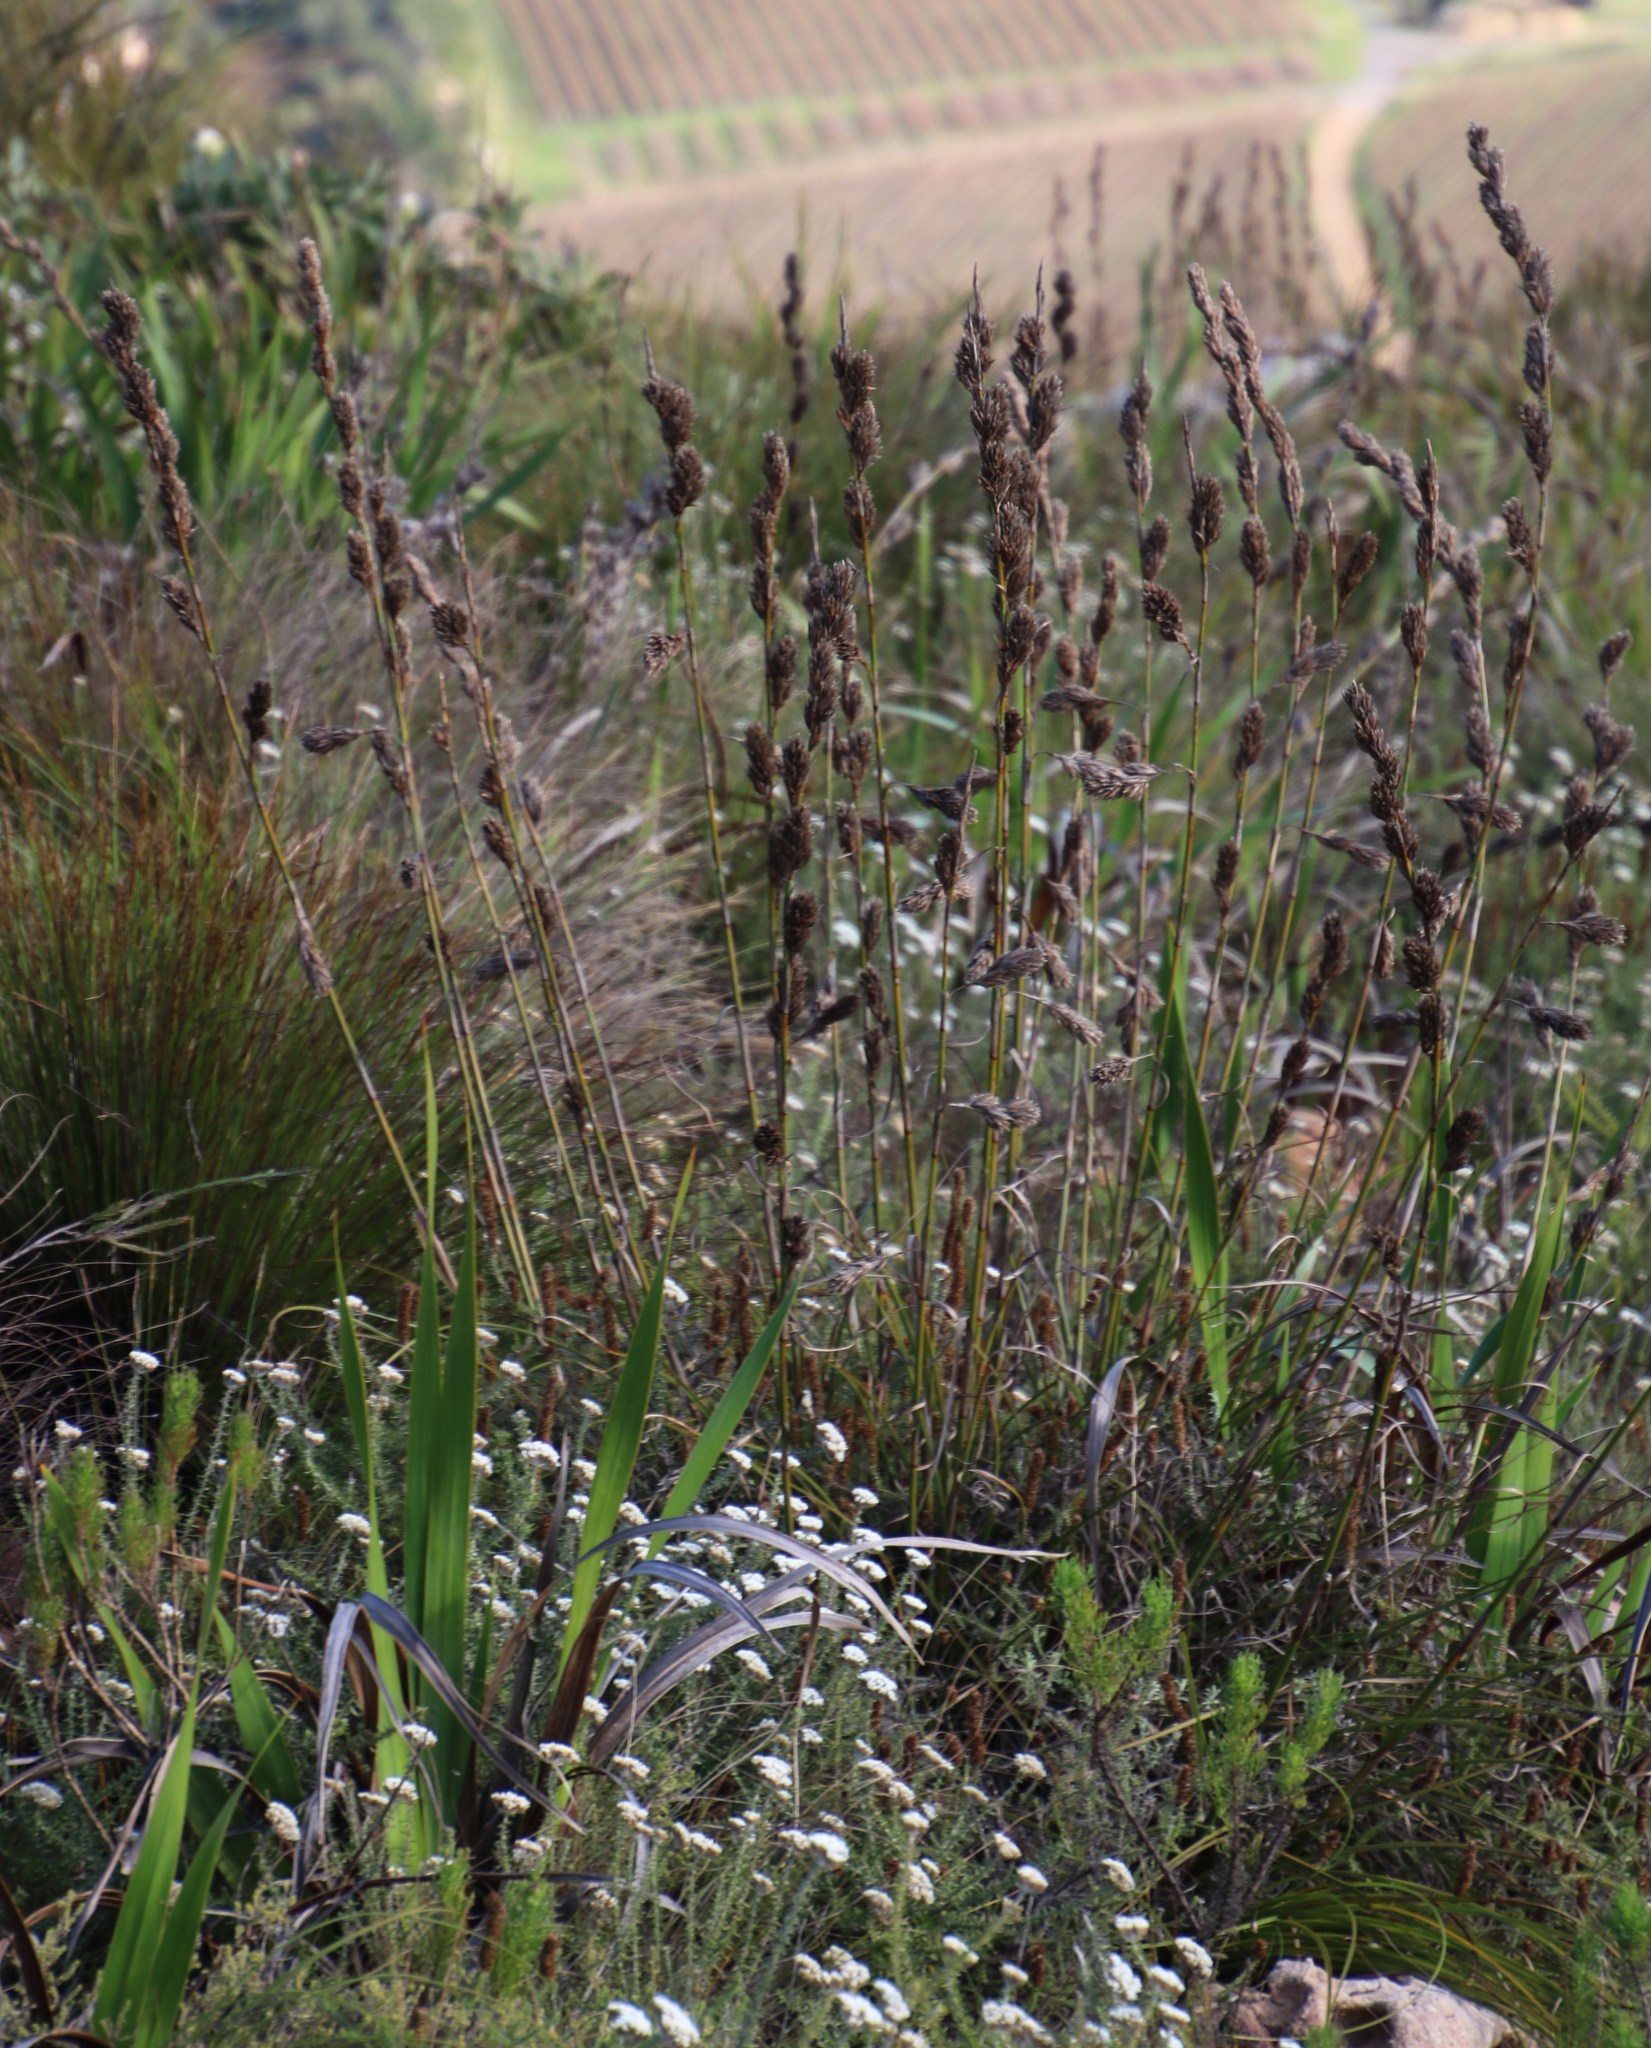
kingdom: Plantae
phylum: Tracheophyta
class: Liliopsida
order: Poales
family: Cyperaceae
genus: Tetraria
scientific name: Tetraria bromoides
